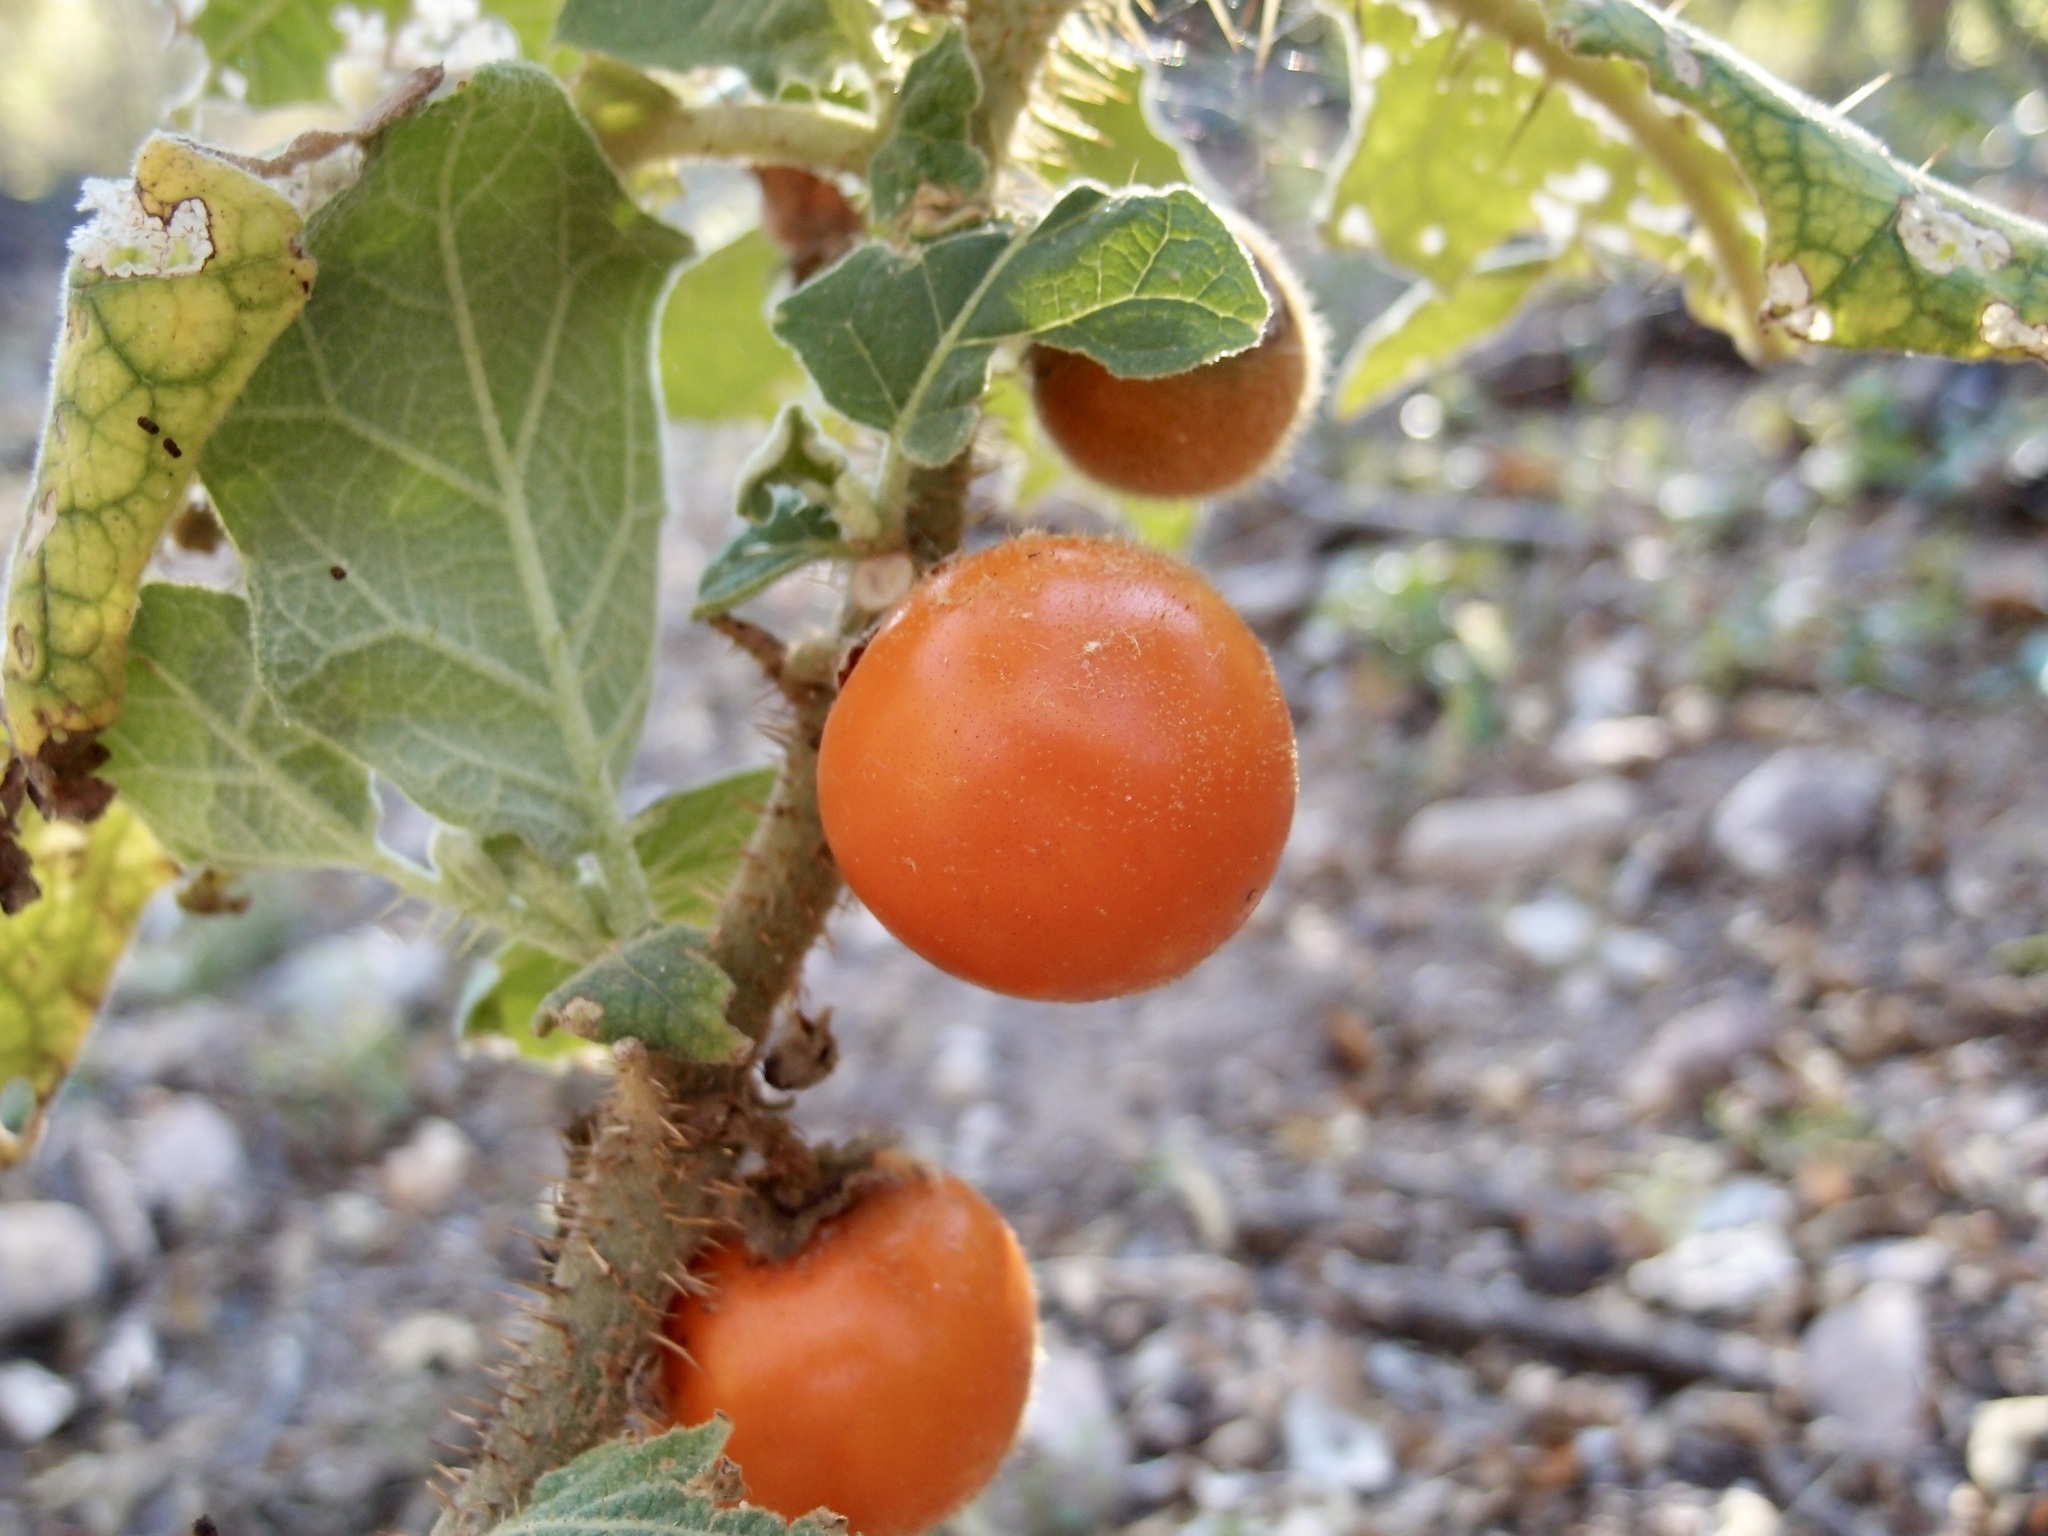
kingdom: Plantae
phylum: Tracheophyta
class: Magnoliopsida
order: Solanales
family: Solanaceae
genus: Solanum
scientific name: Solanum candidum
